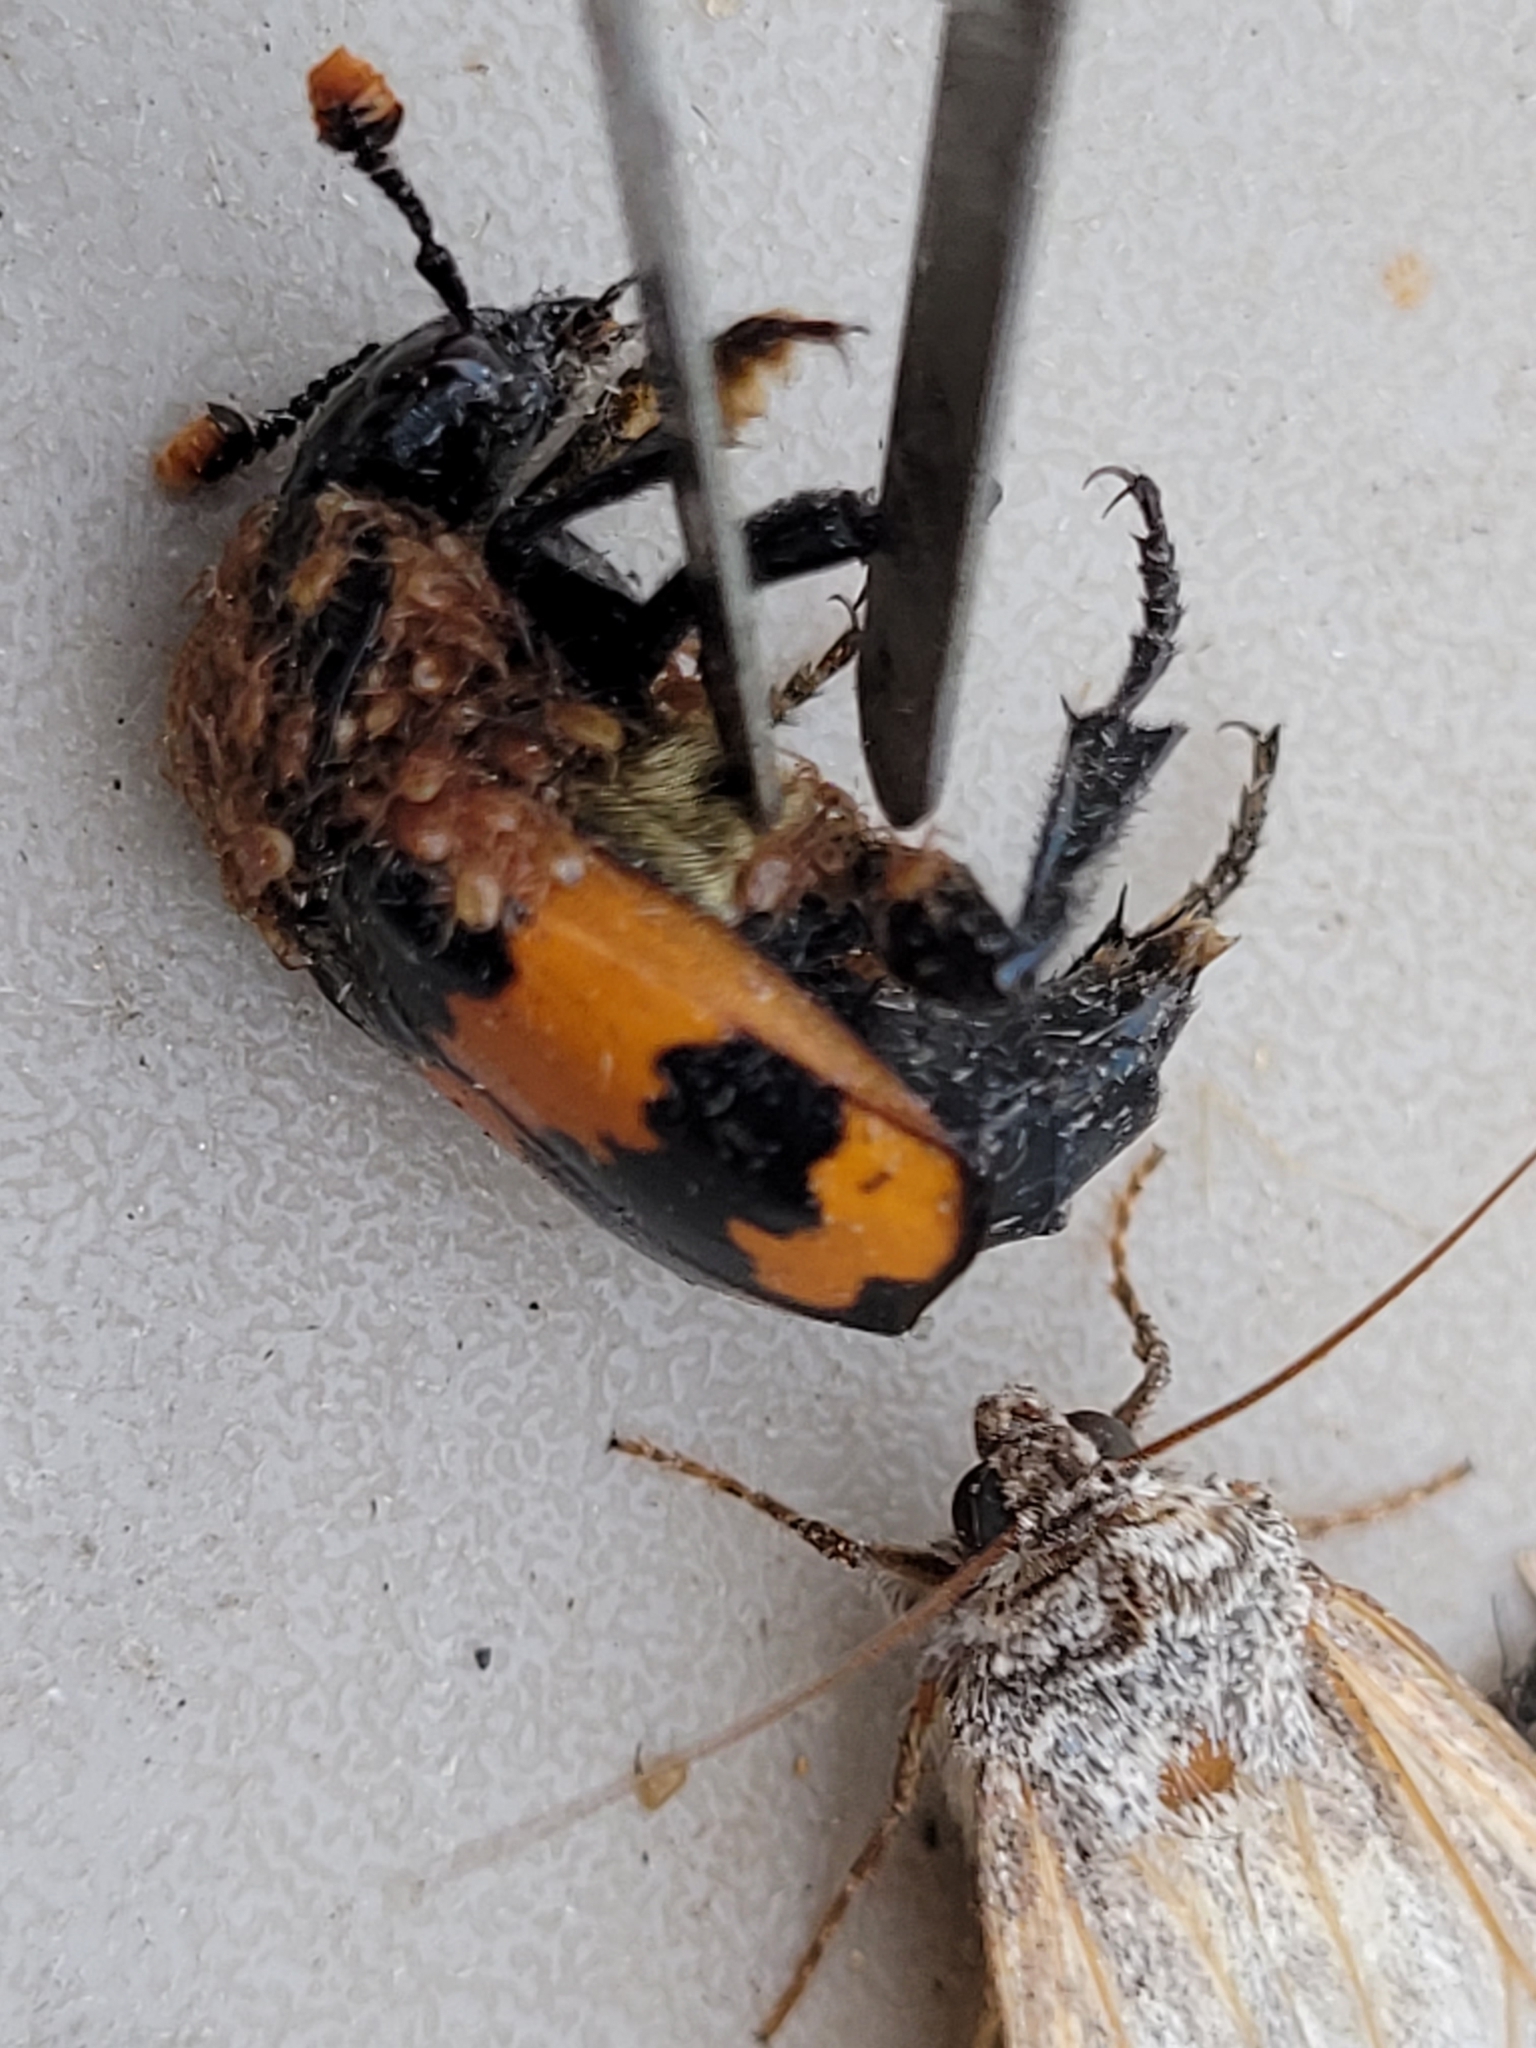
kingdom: Animalia
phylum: Arthropoda
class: Arachnida
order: Mesostigmata
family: Parasitidae
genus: Poecilochirus
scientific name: Poecilochirus
